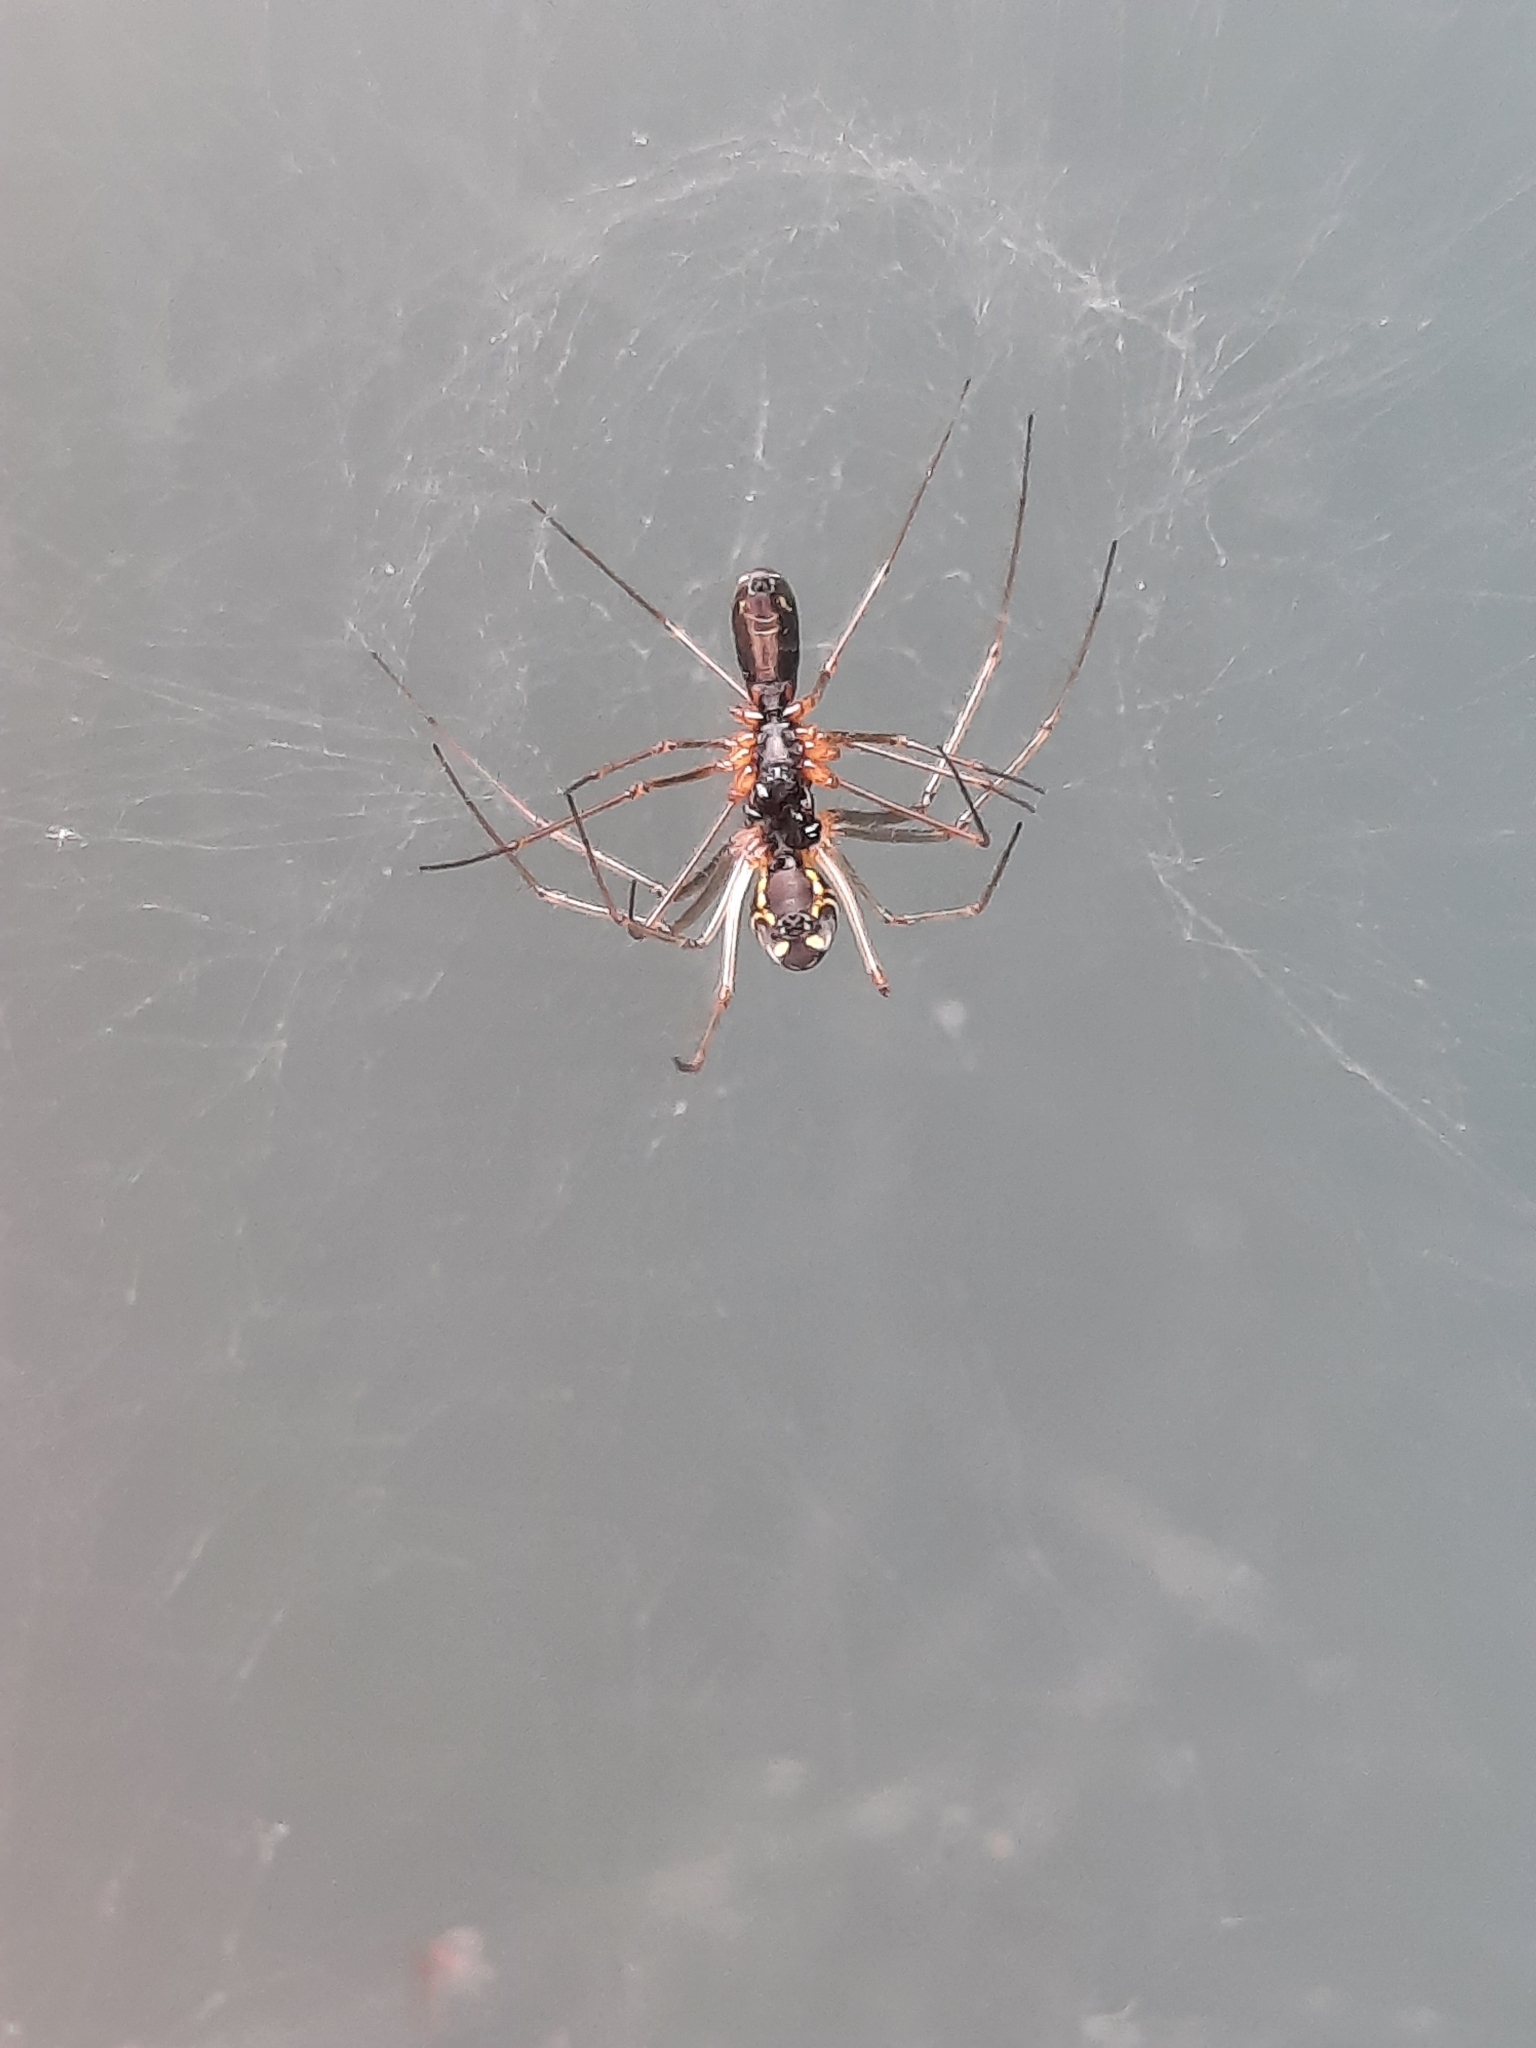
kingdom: Animalia
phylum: Arthropoda
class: Arachnida
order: Araneae
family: Linyphiidae
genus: Neriene
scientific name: Neriene radiata
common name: Filmy dome spider
